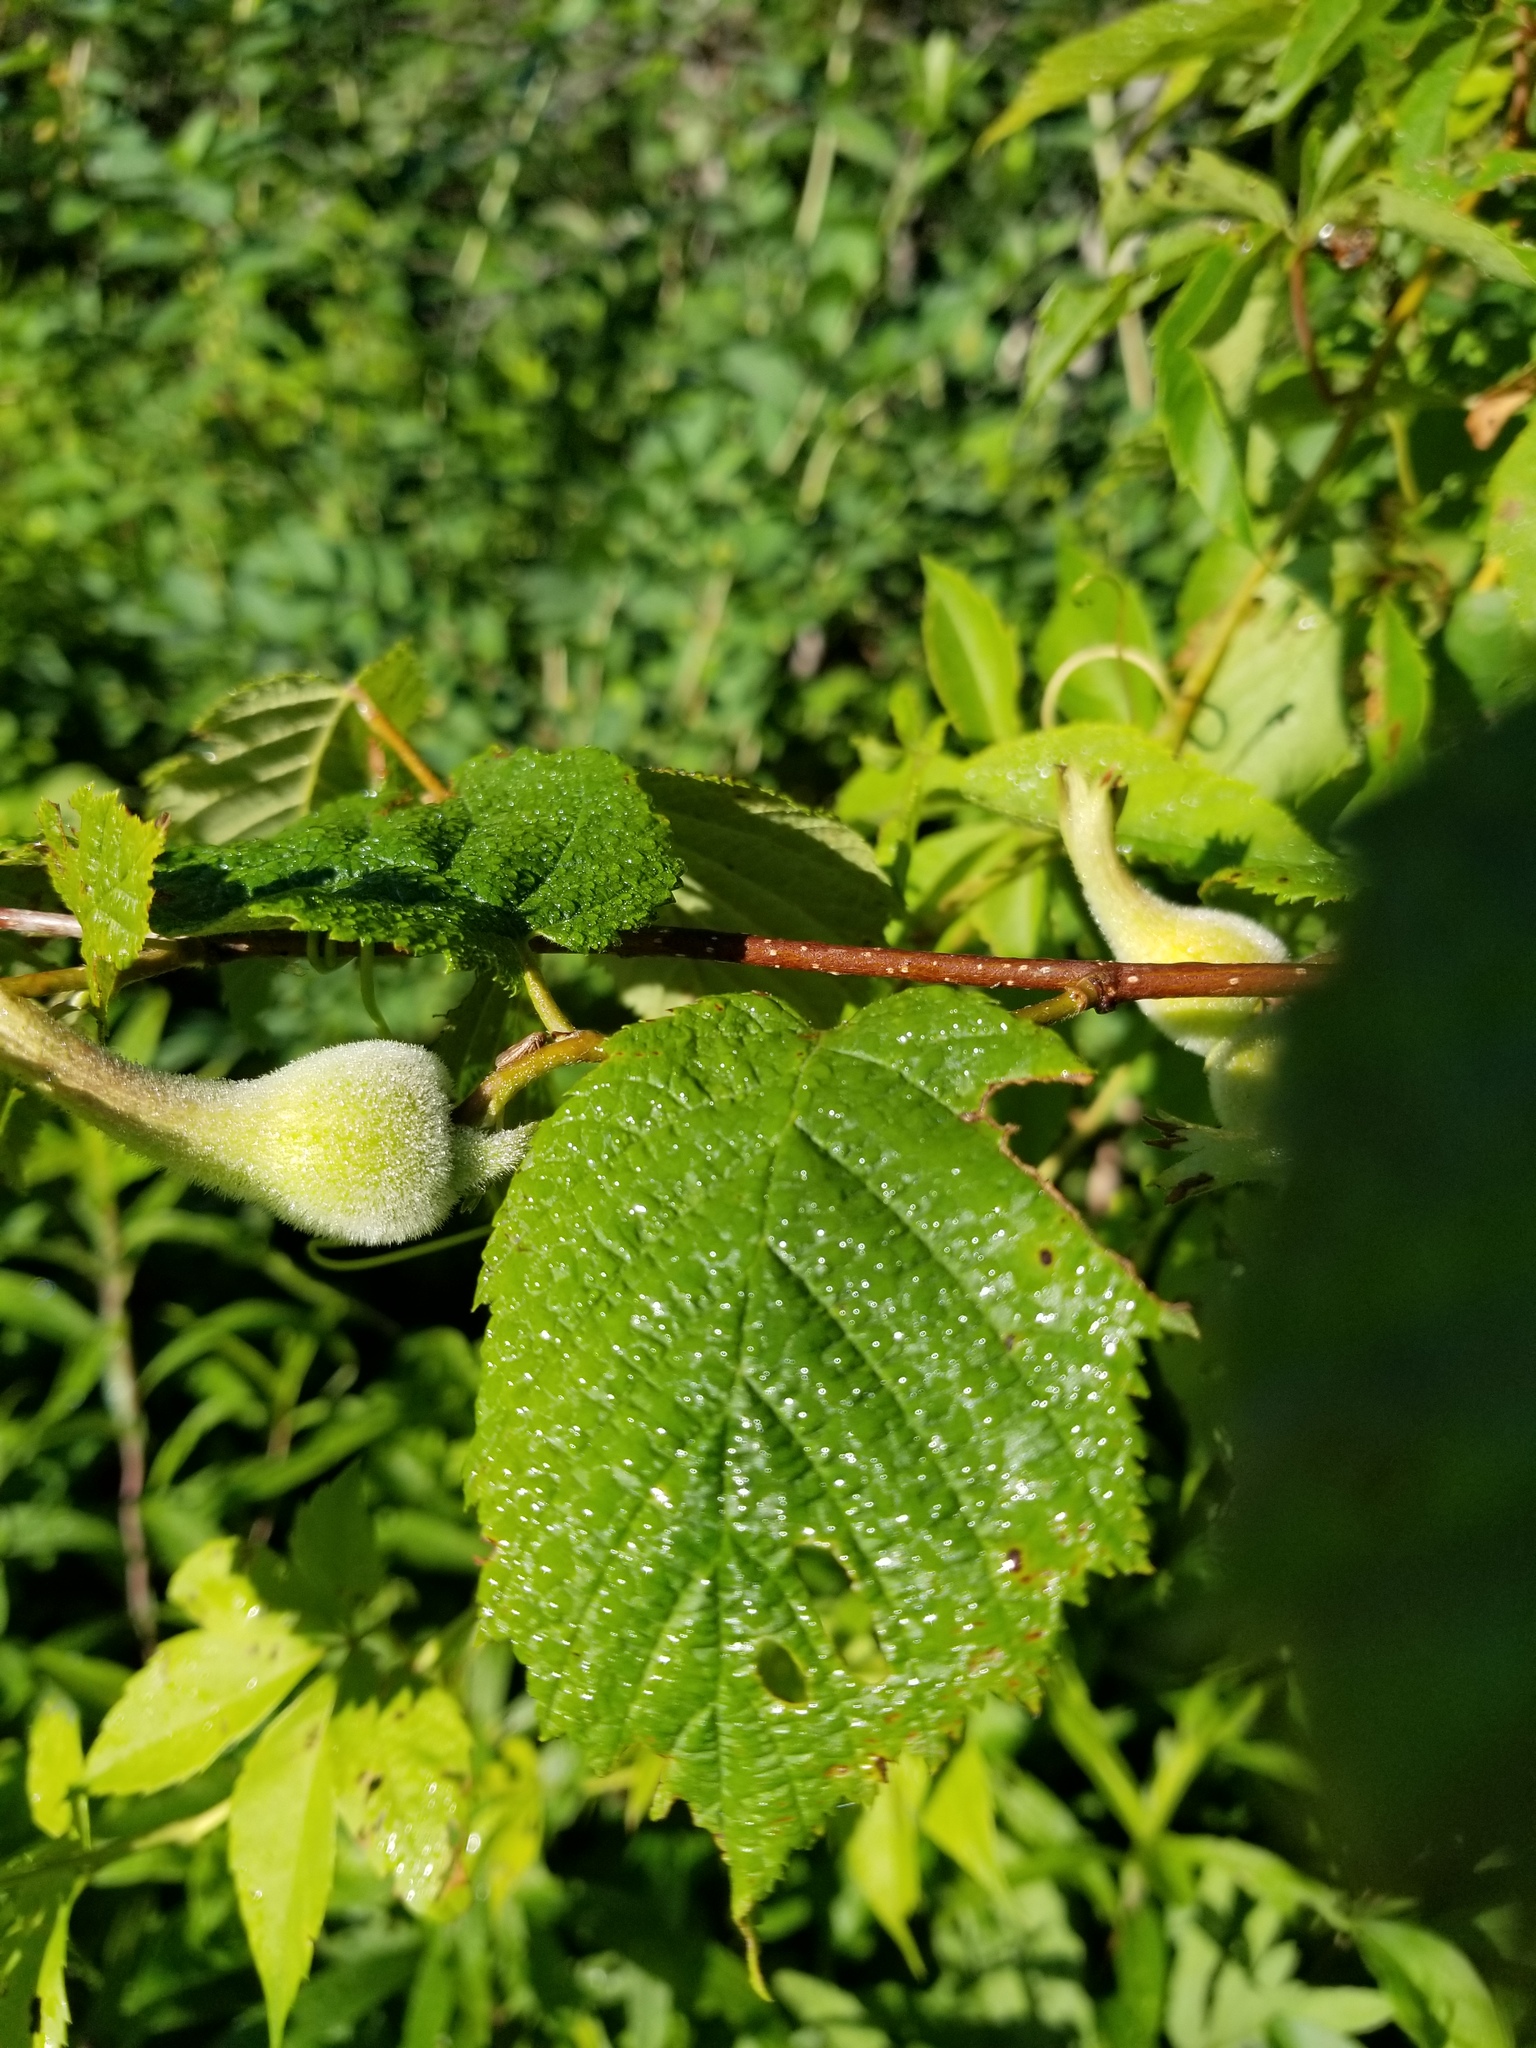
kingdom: Plantae
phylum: Tracheophyta
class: Magnoliopsida
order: Fagales
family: Betulaceae
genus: Corylus
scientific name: Corylus cornuta
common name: Beaked hazel
